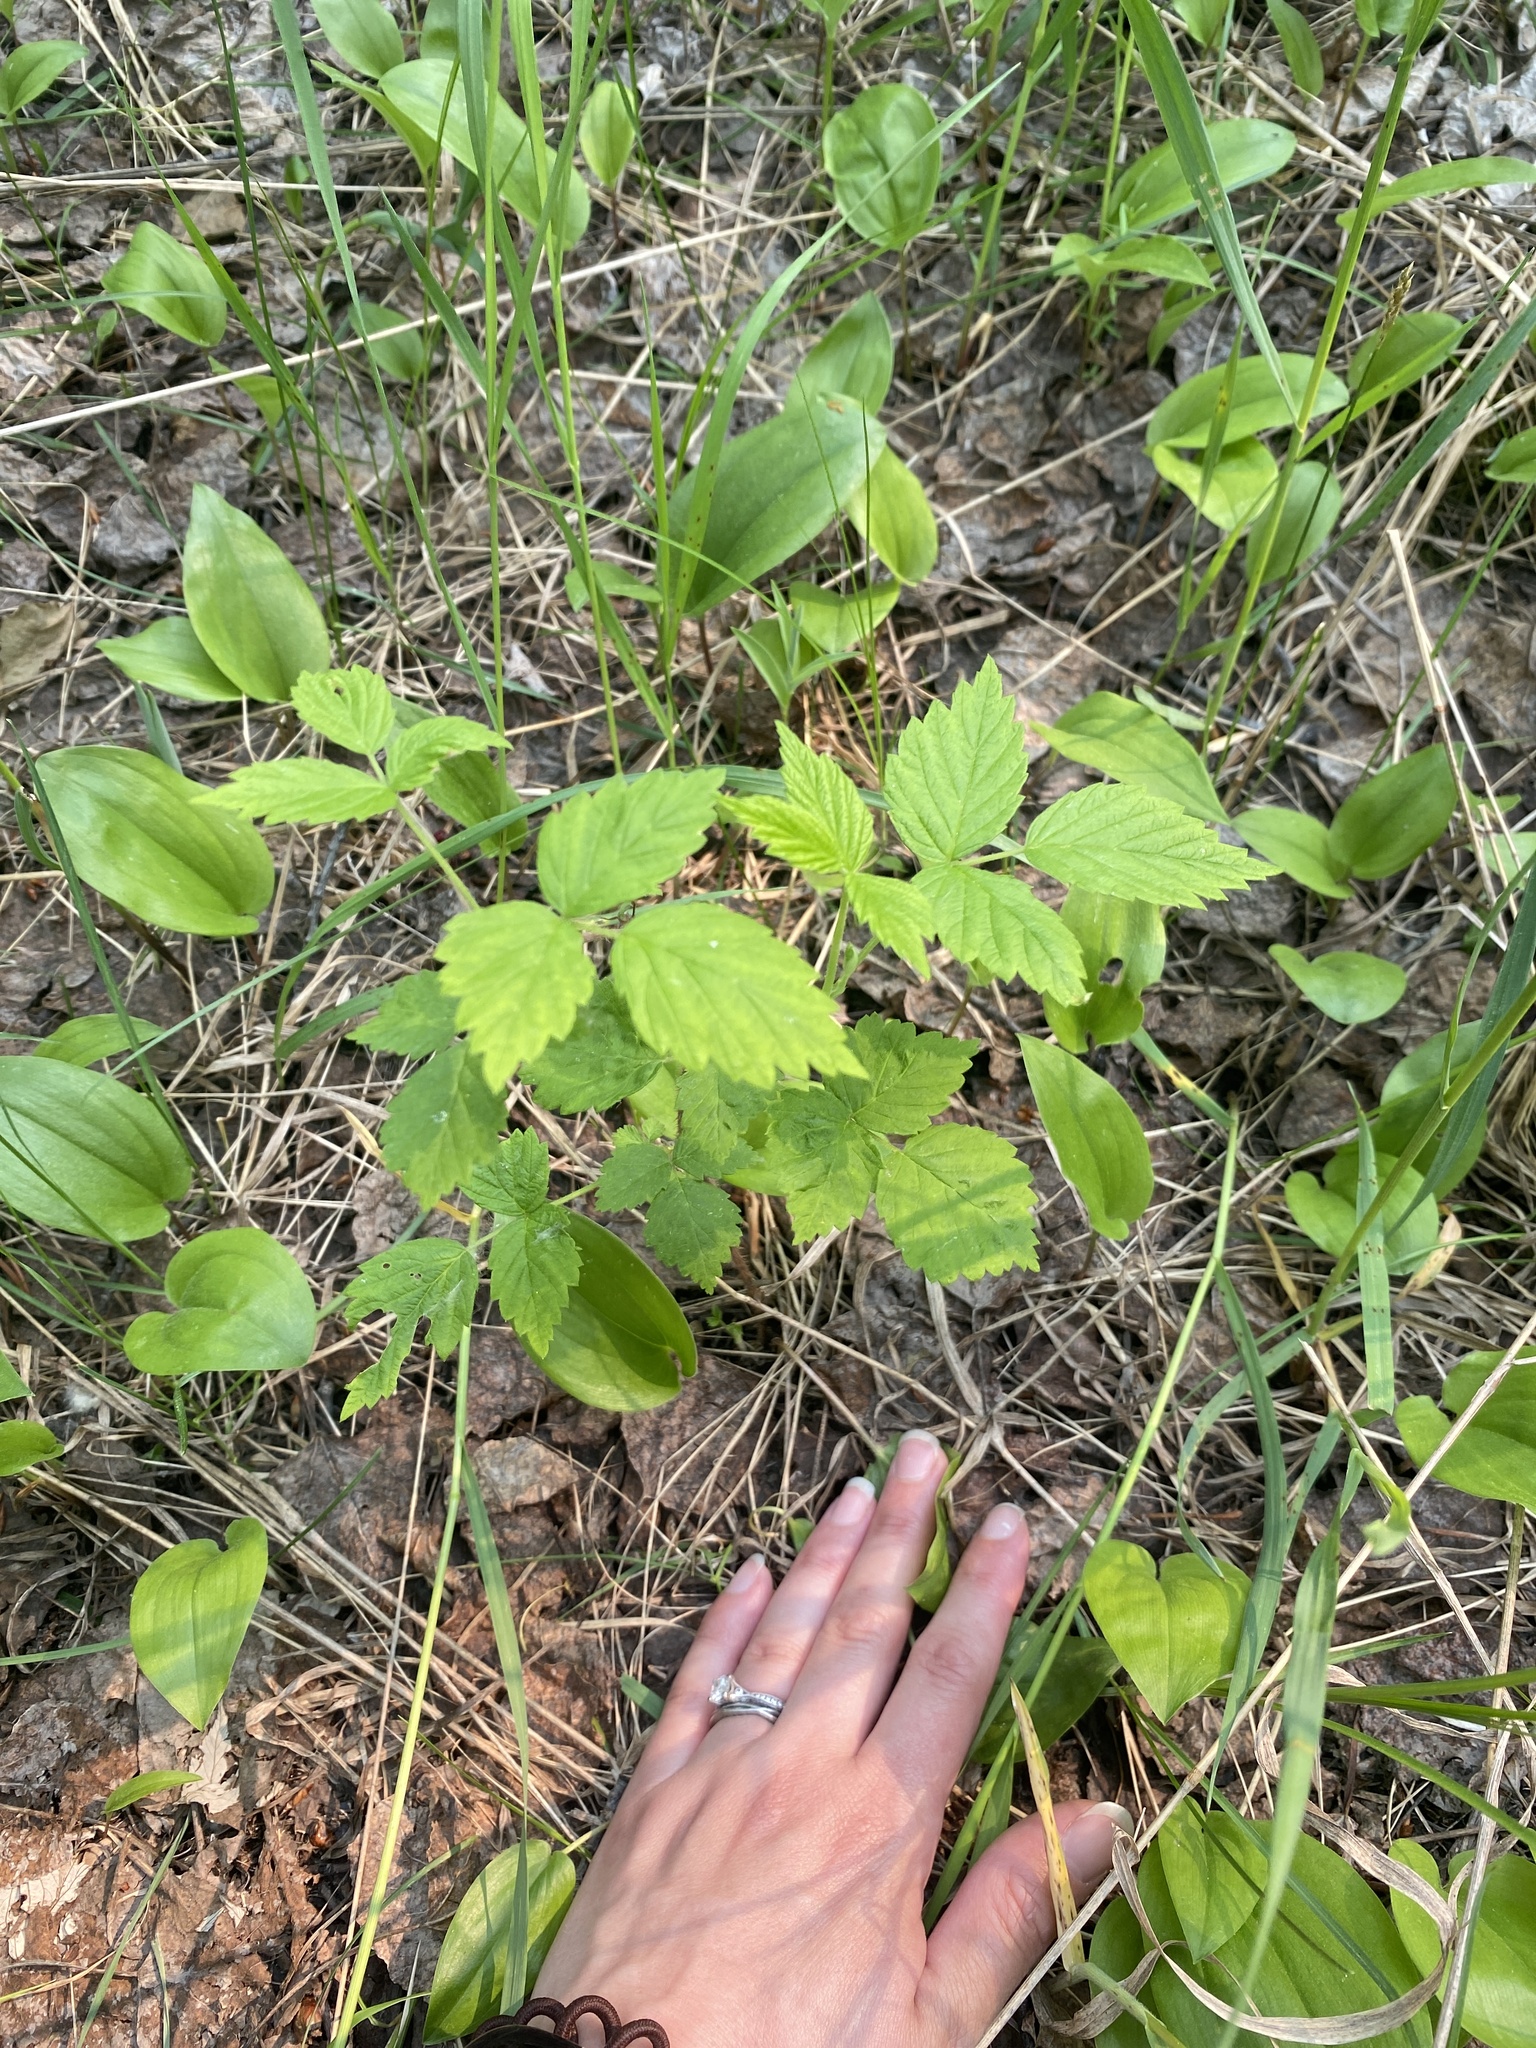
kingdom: Plantae
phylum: Tracheophyta
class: Magnoliopsida
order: Rosales
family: Rosaceae
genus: Rubus
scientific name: Rubus idaeus
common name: Raspberry
